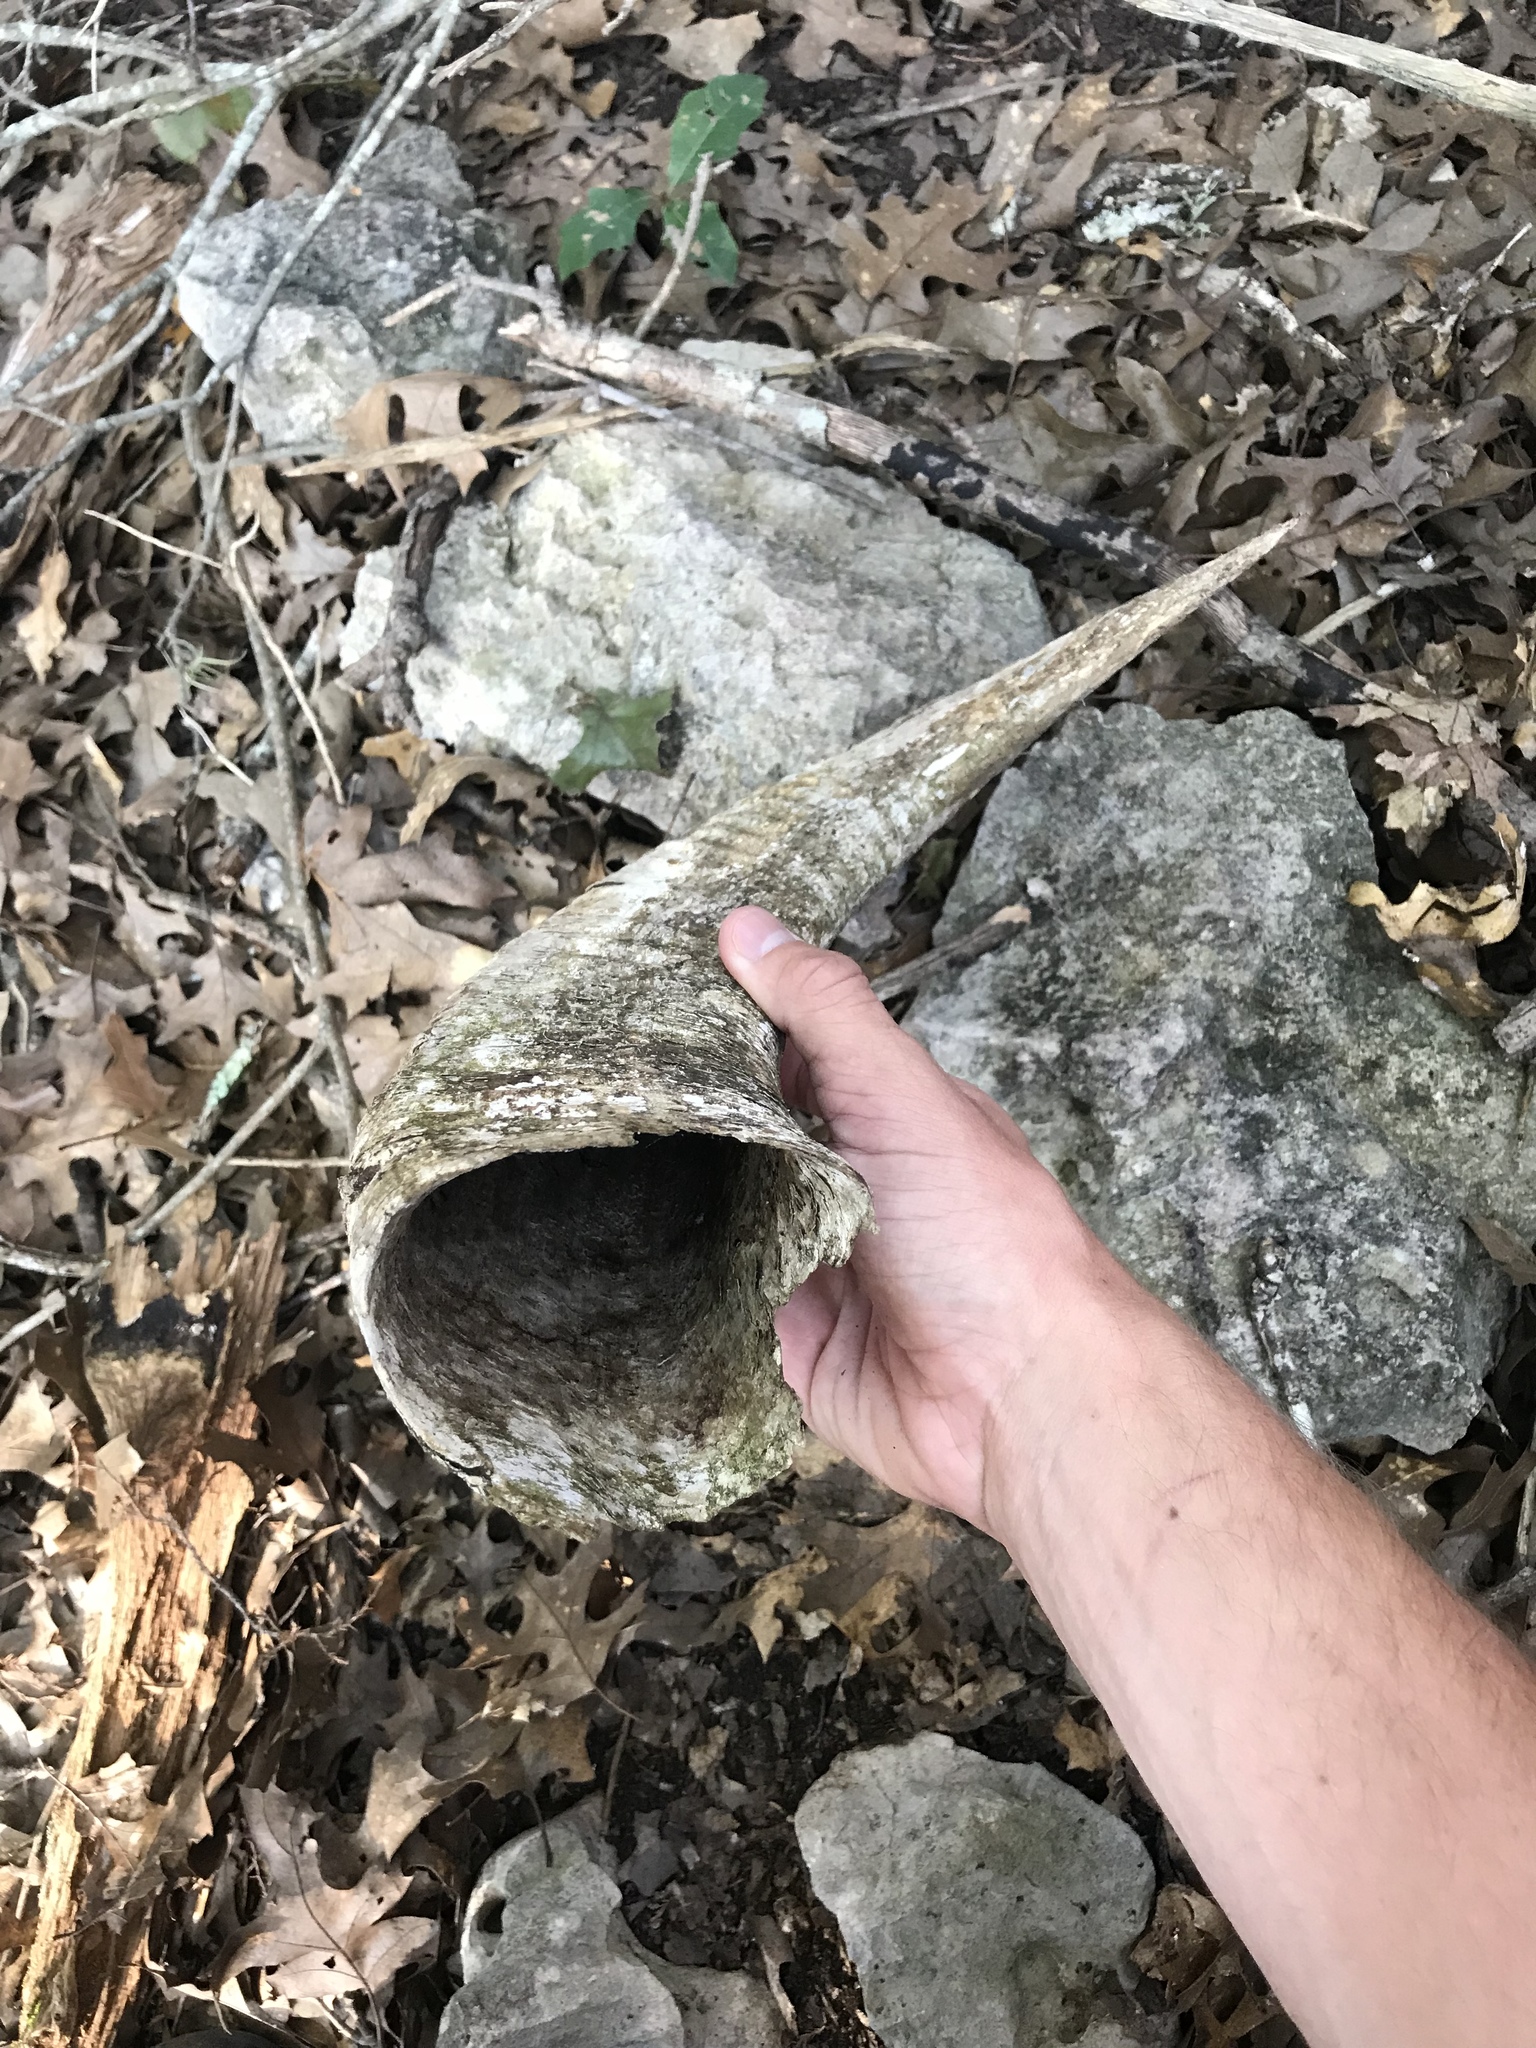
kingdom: Animalia
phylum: Chordata
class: Mammalia
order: Artiodactyla
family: Bovidae
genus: Ammotragus
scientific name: Ammotragus lervia
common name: Barbary sheep
